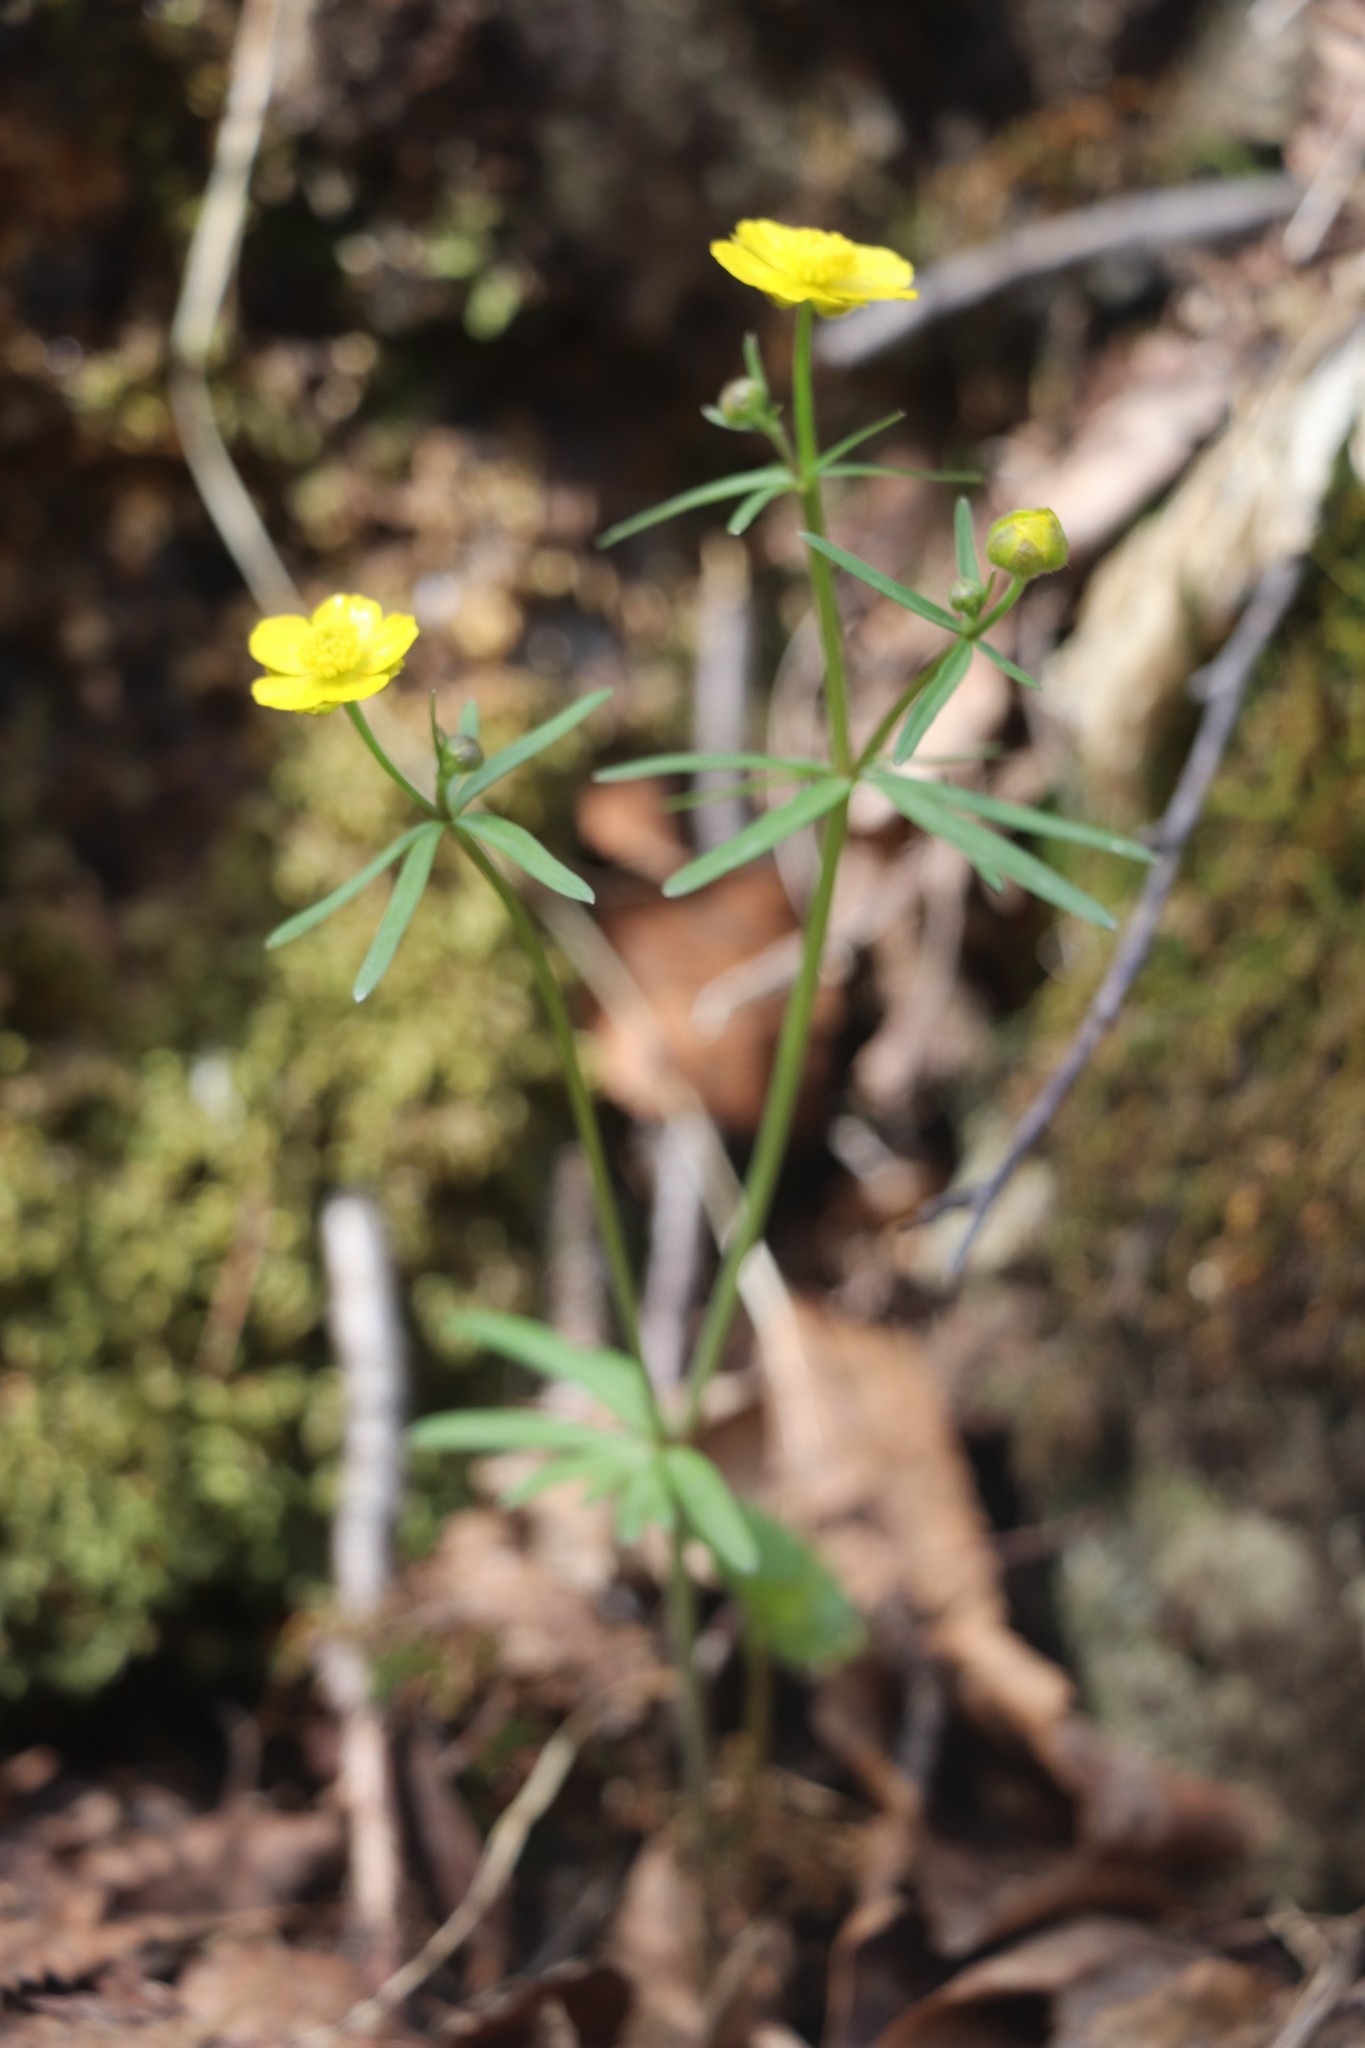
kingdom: Plantae
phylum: Tracheophyta
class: Magnoliopsida
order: Ranunculales
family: Ranunculaceae
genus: Ranunculus
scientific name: Ranunculus monophyllus
